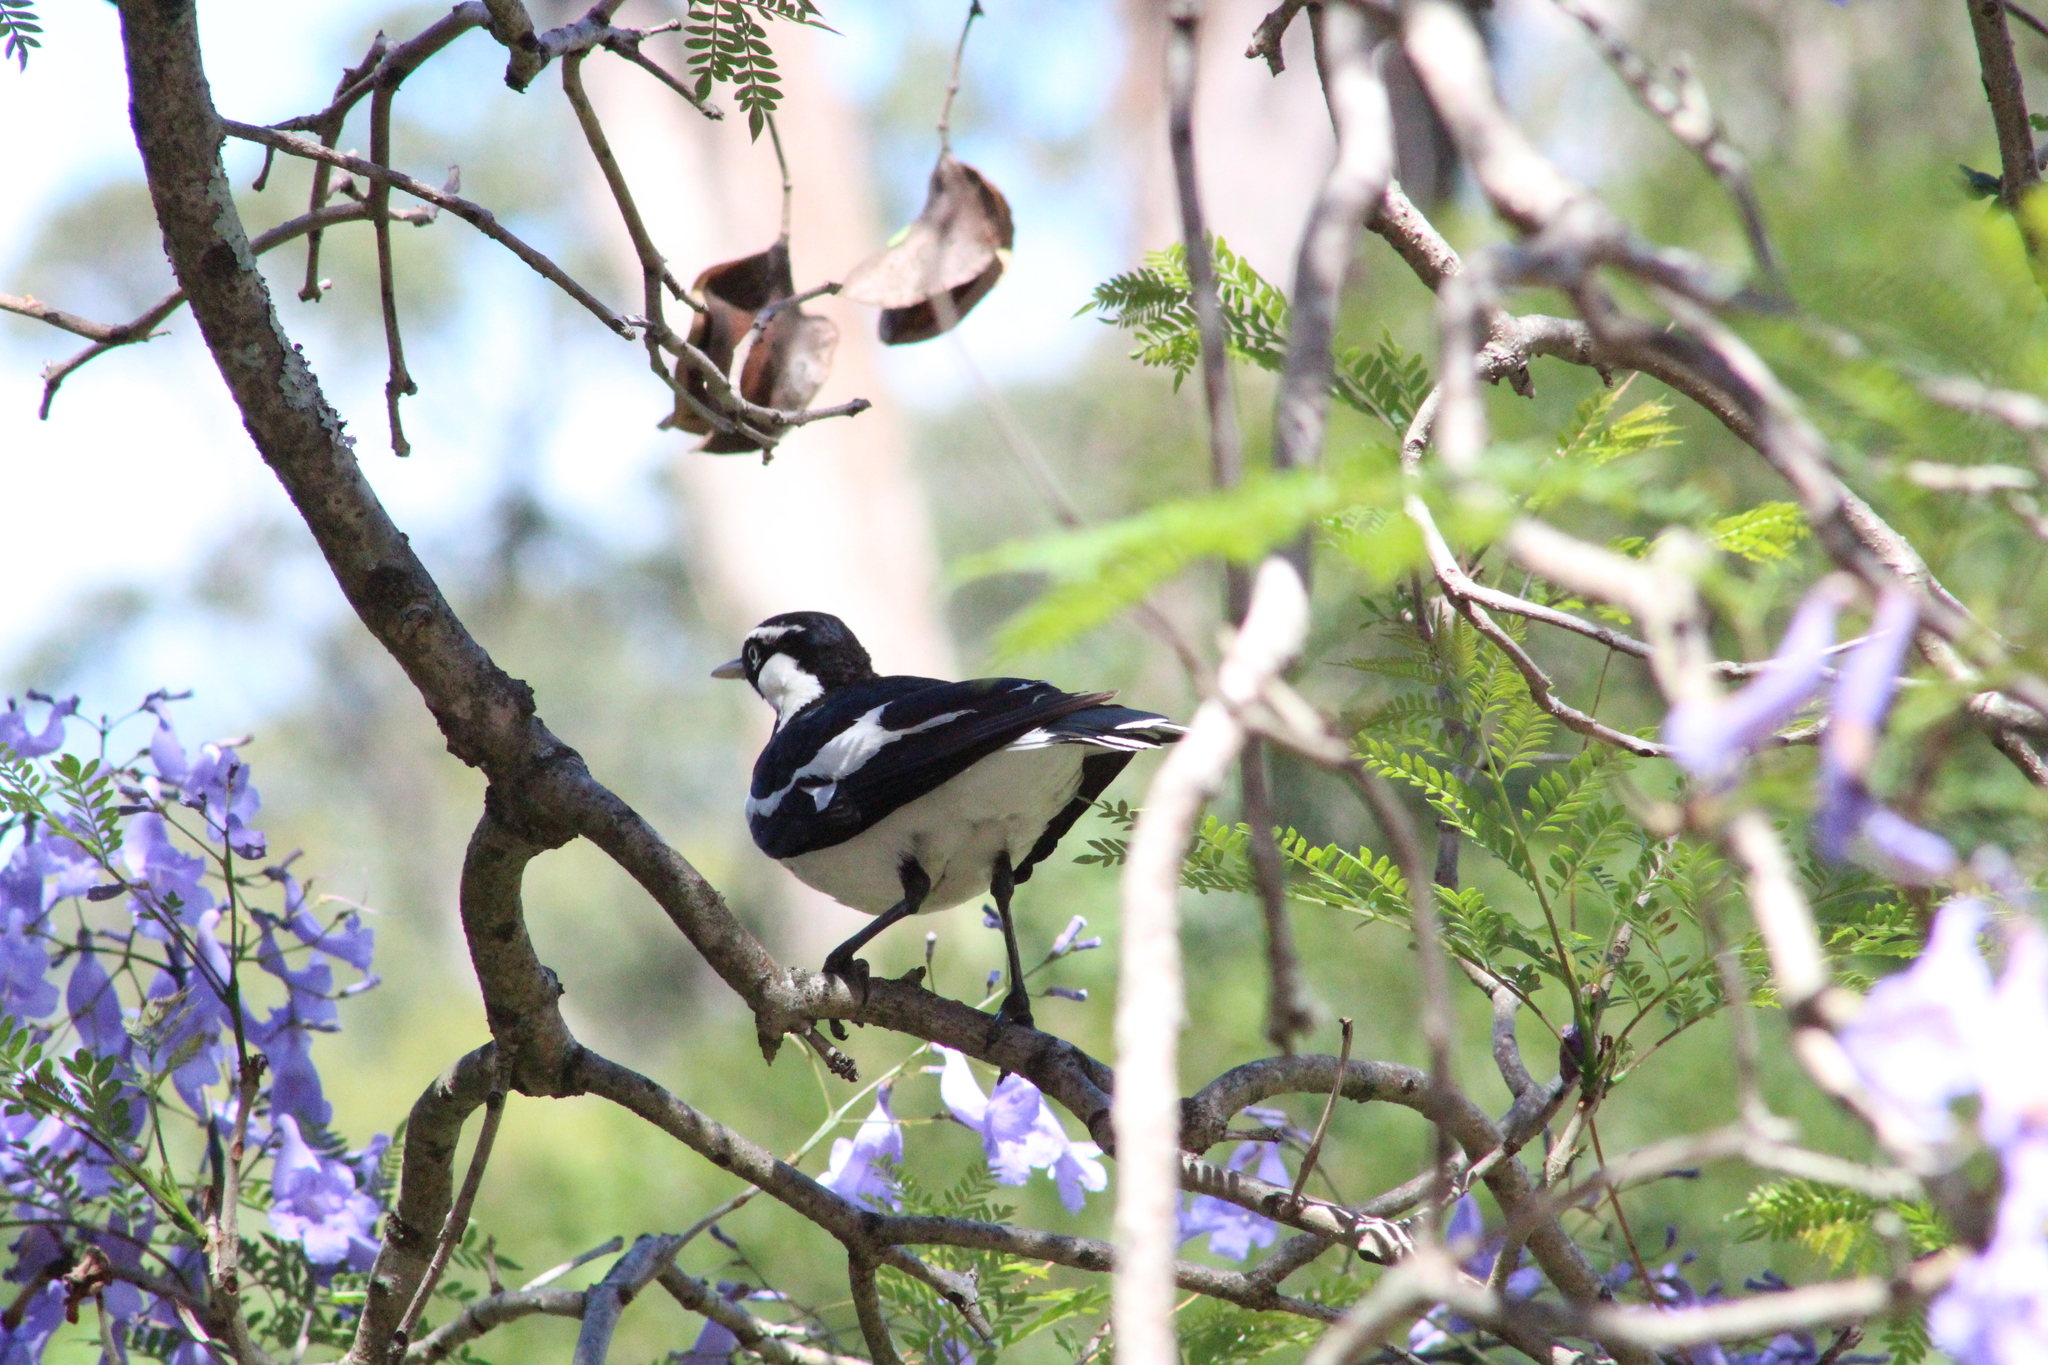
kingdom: Animalia
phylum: Chordata
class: Aves
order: Passeriformes
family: Monarchidae
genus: Grallina
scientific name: Grallina cyanoleuca
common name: Magpie-lark
